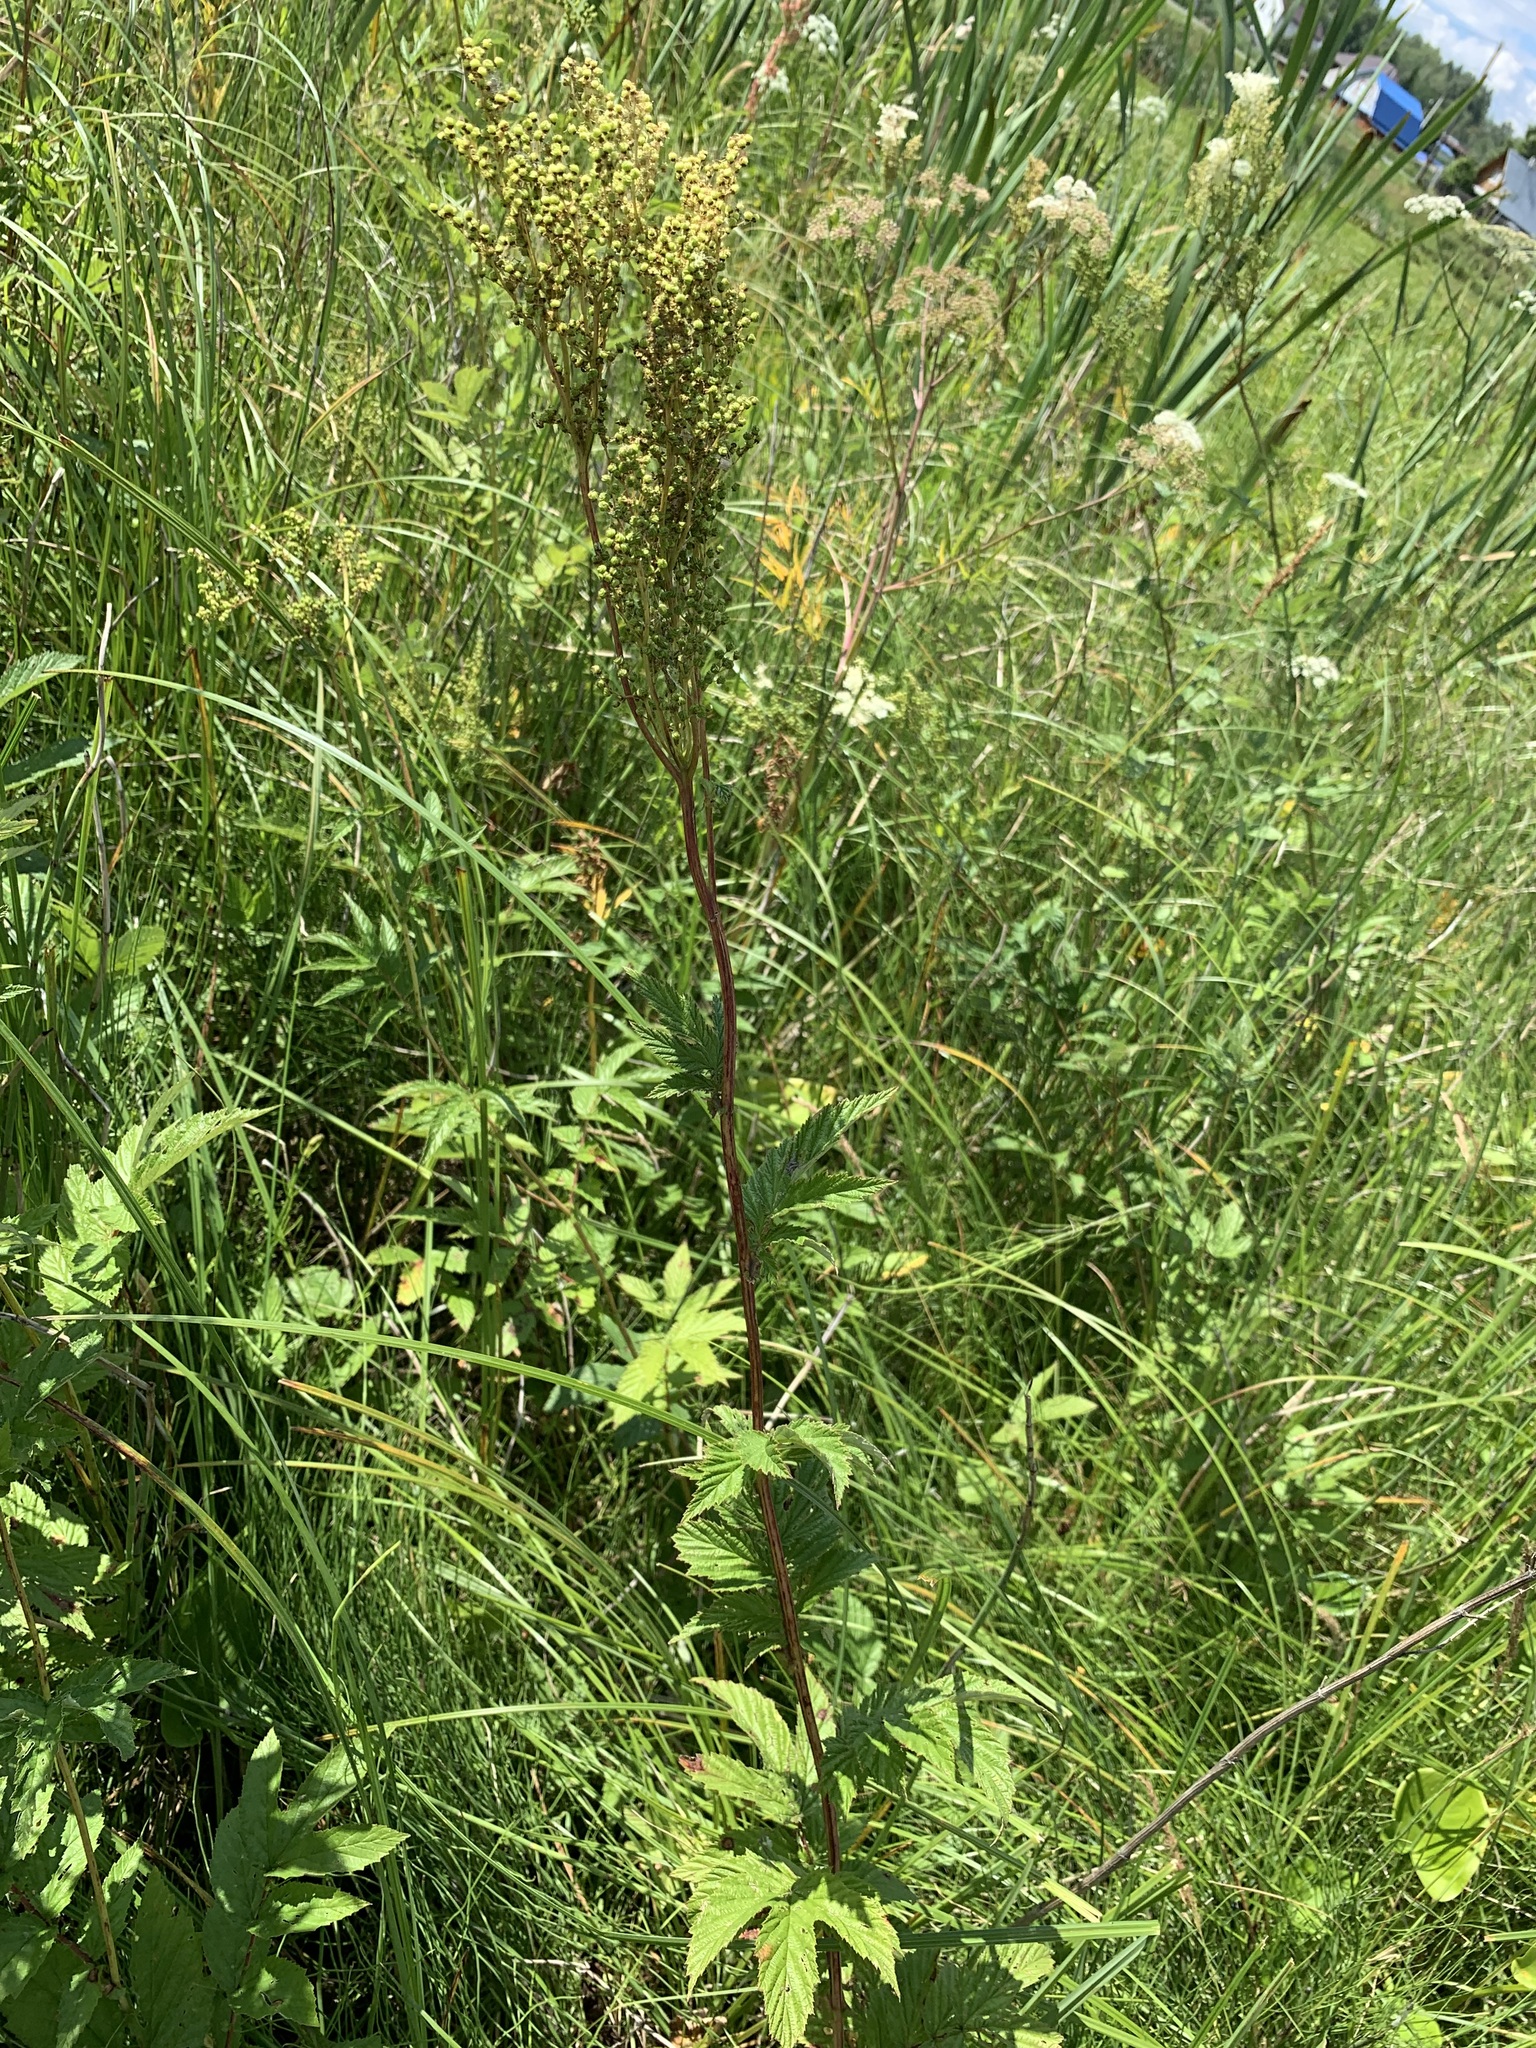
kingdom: Plantae
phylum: Tracheophyta
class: Magnoliopsida
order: Rosales
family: Rosaceae
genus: Filipendula
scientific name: Filipendula ulmaria
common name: Meadowsweet
